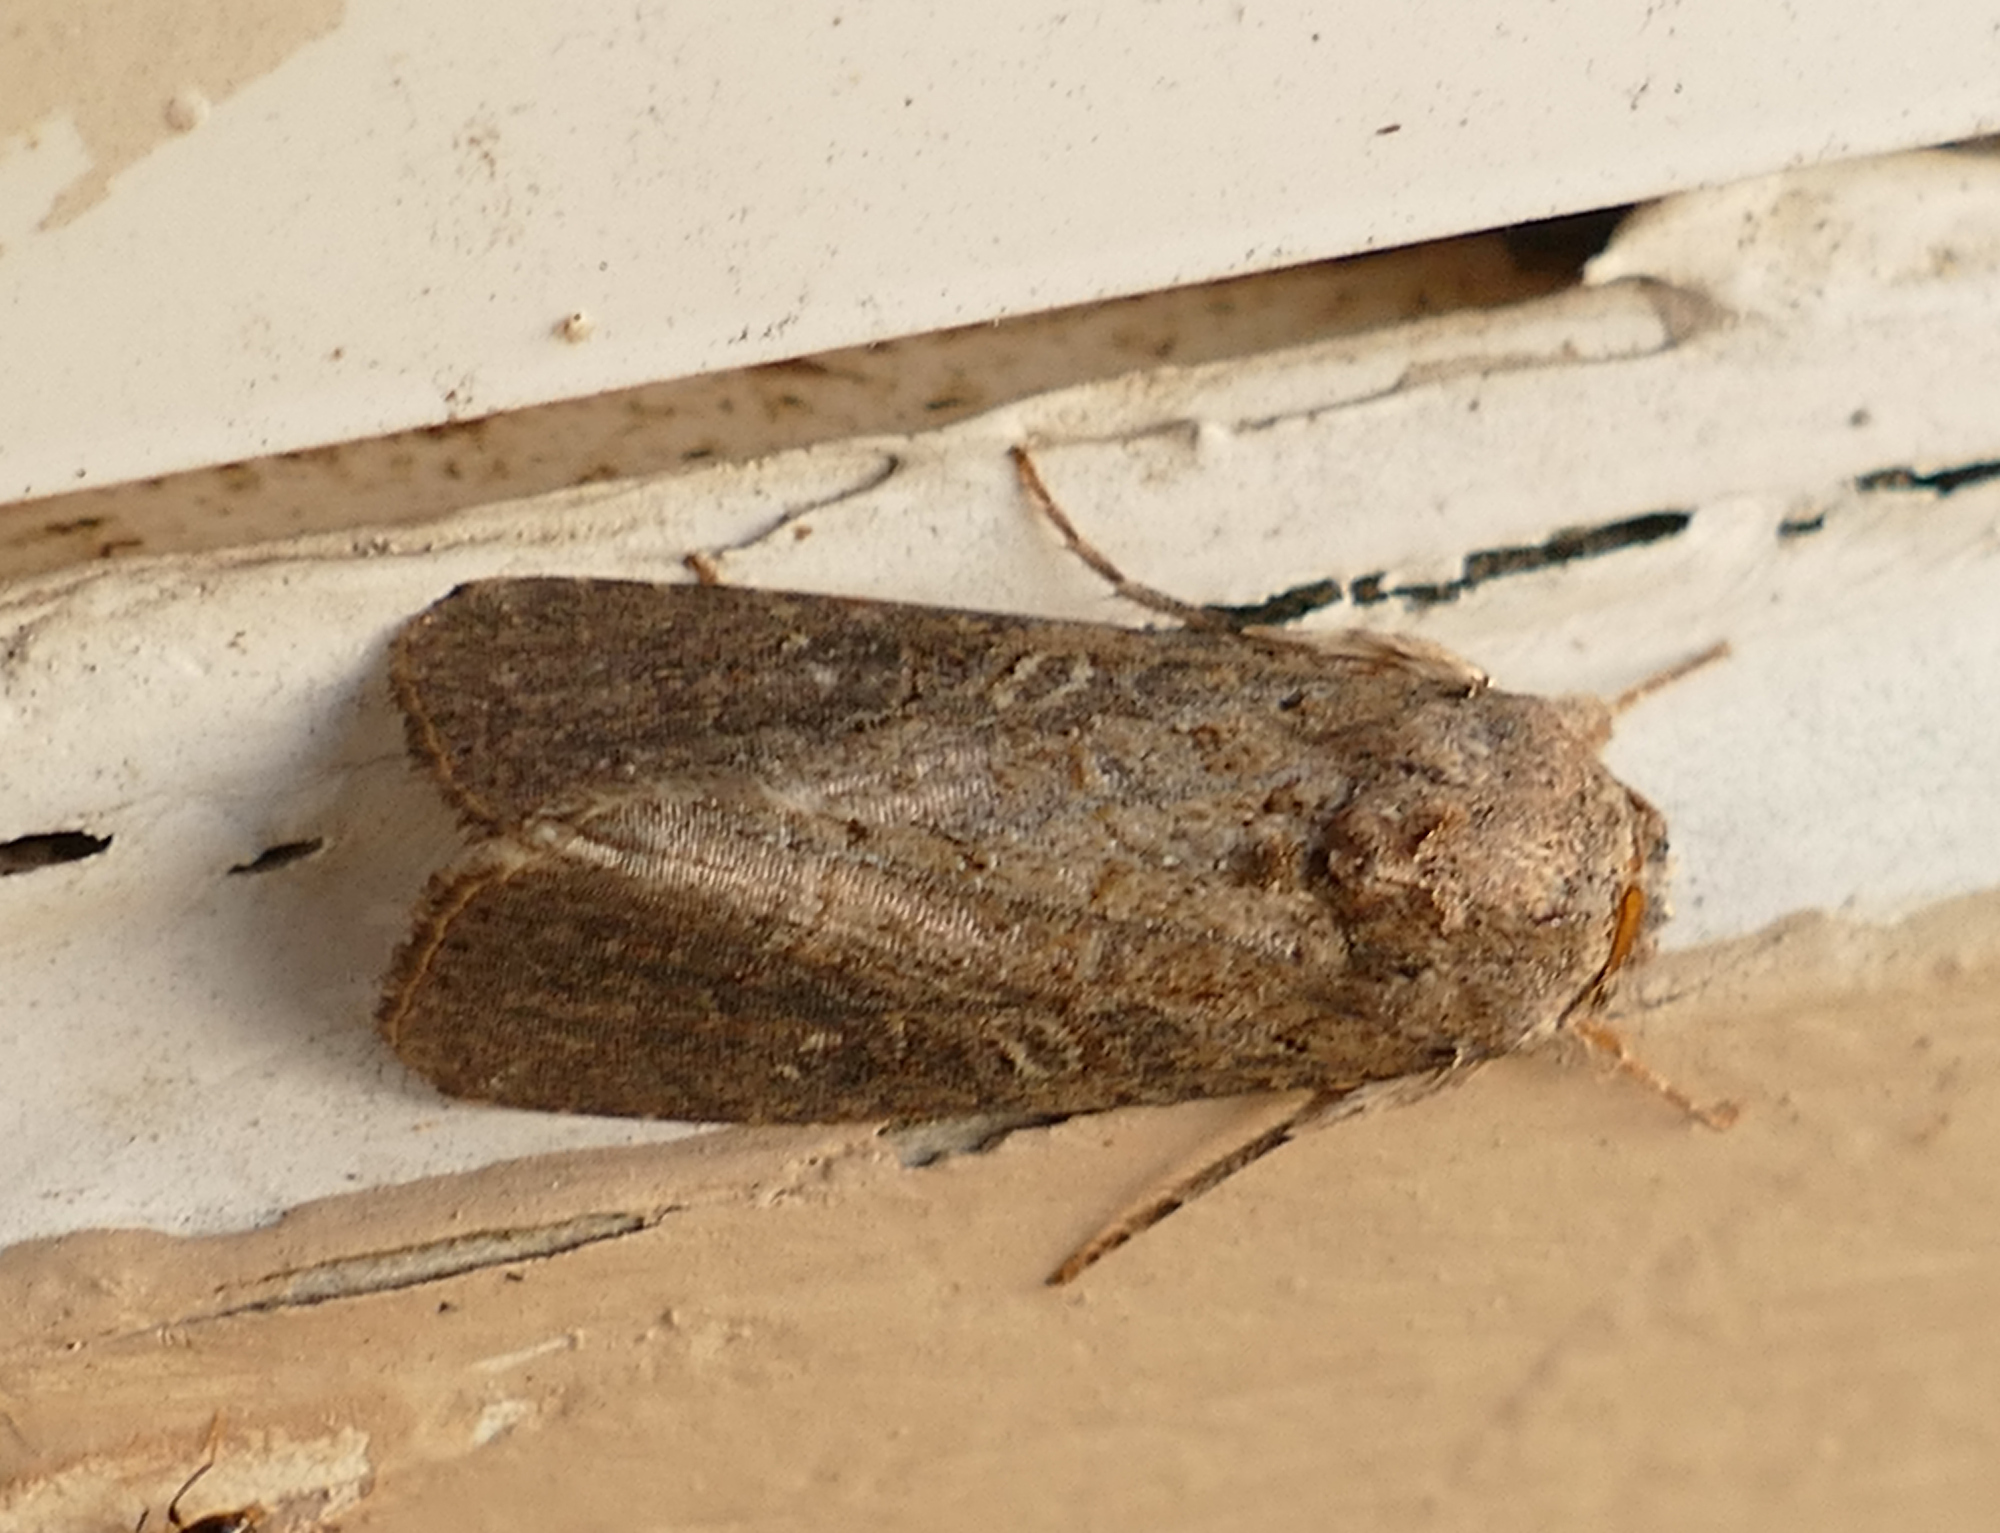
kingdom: Animalia
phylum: Arthropoda
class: Insecta
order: Lepidoptera
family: Noctuidae
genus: Spodoptera
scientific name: Spodoptera exigua
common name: Beet armyworm
